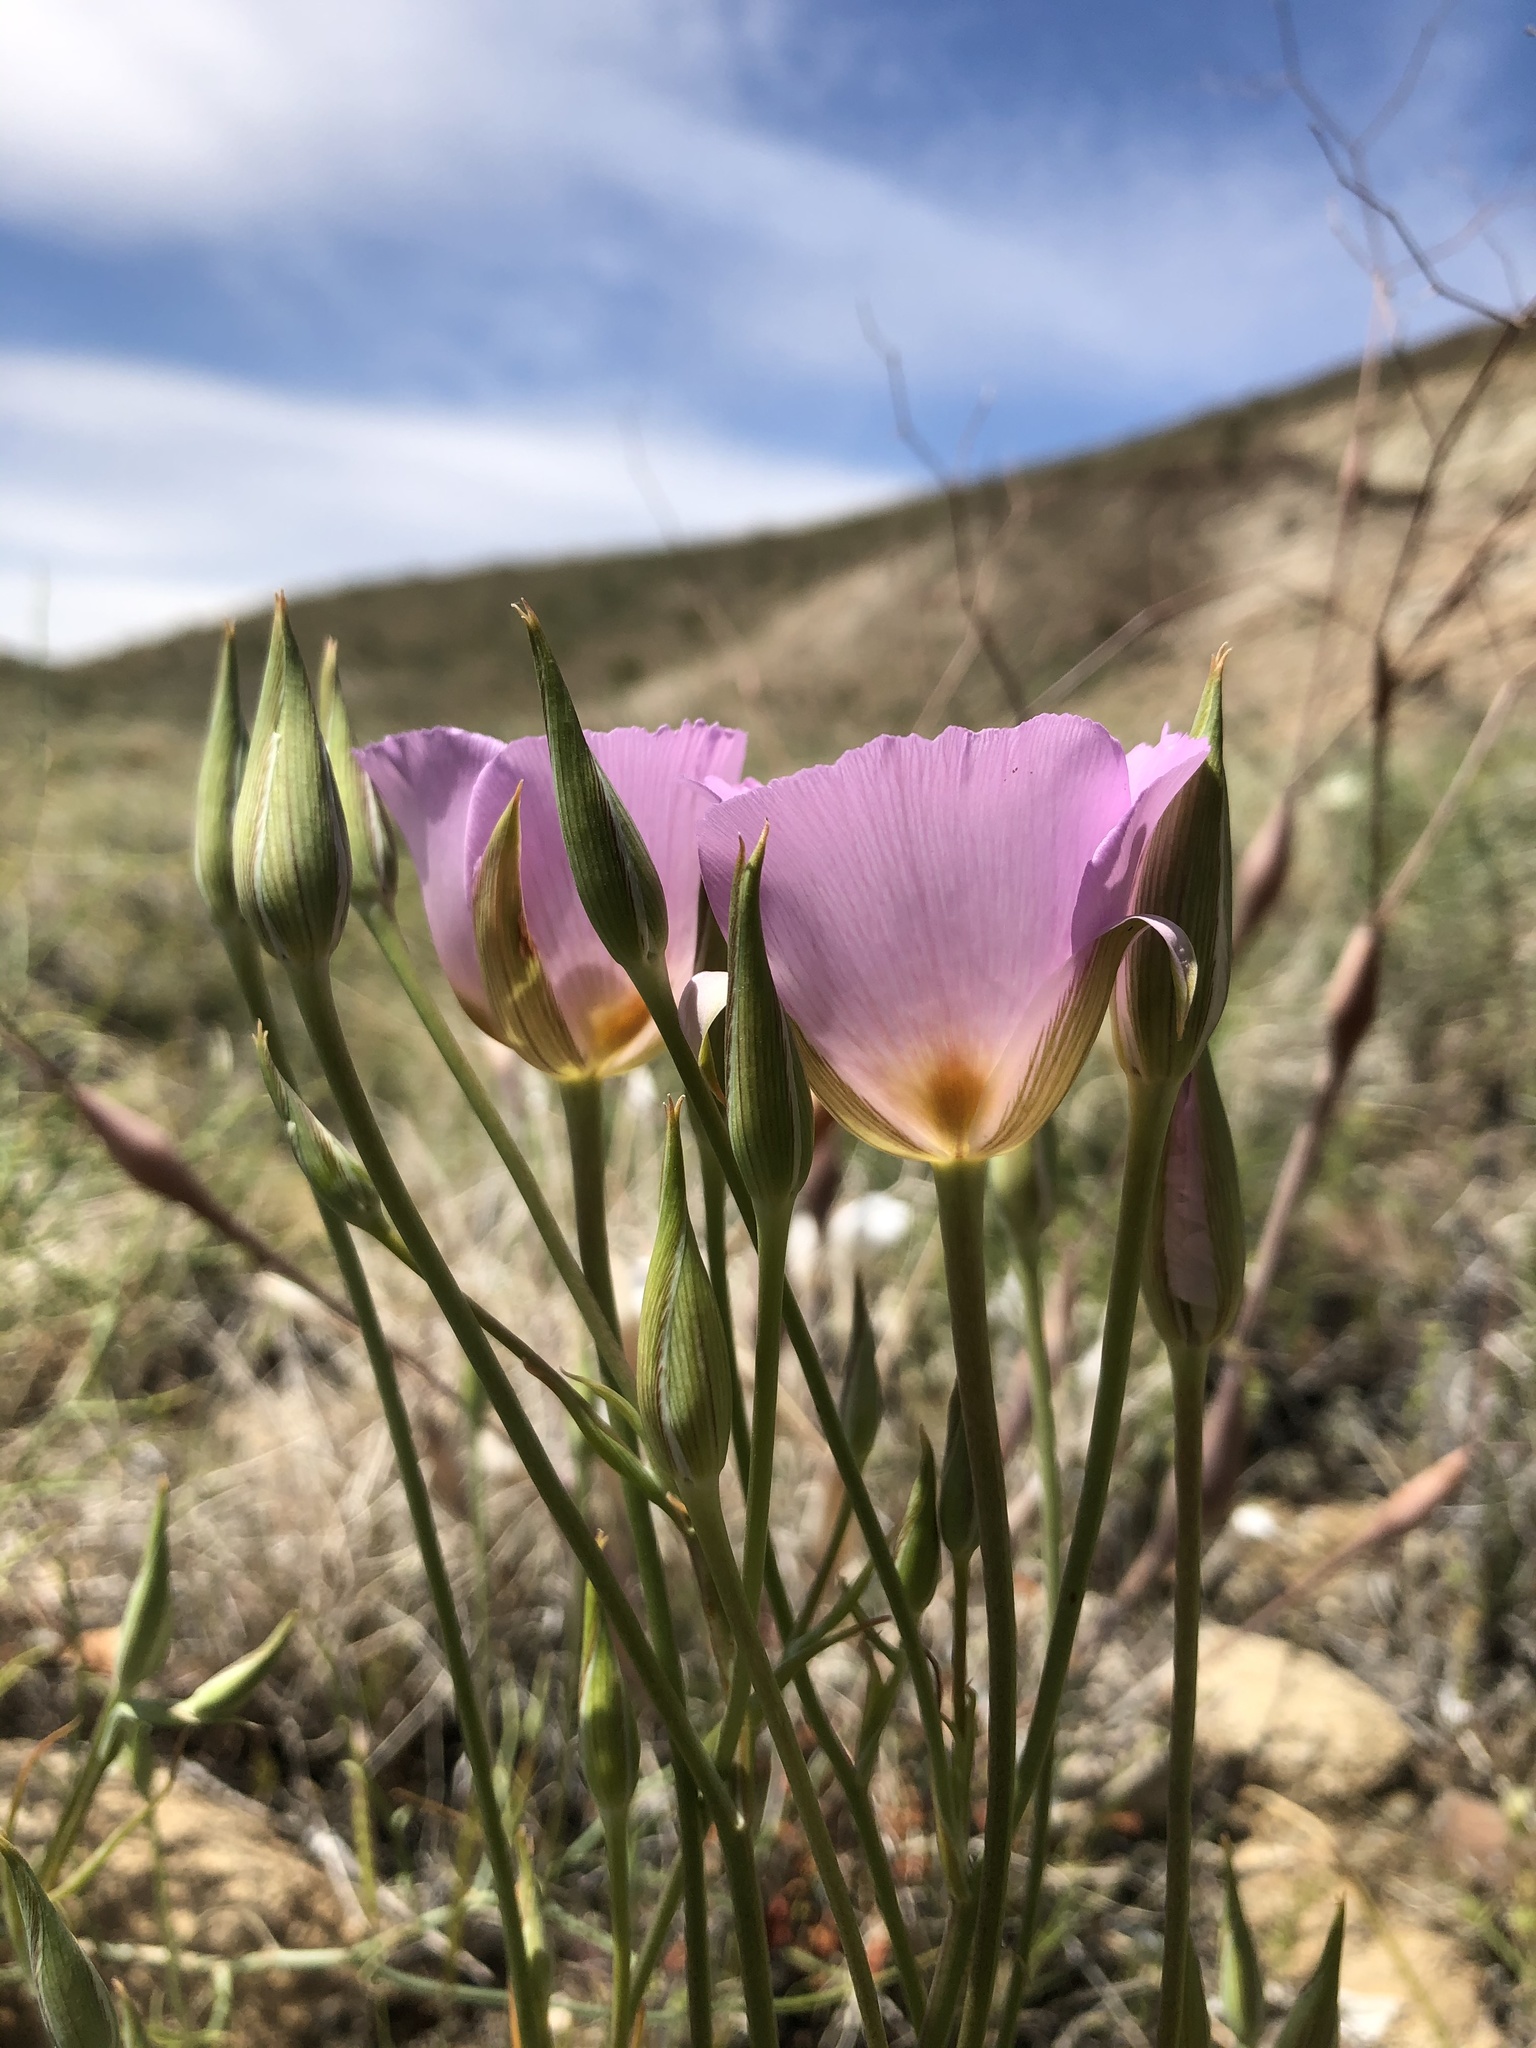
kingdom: Plantae
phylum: Tracheophyta
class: Liliopsida
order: Liliales
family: Liliaceae
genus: Calochortus
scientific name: Calochortus striatus
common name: Alkali mariposa-lily
